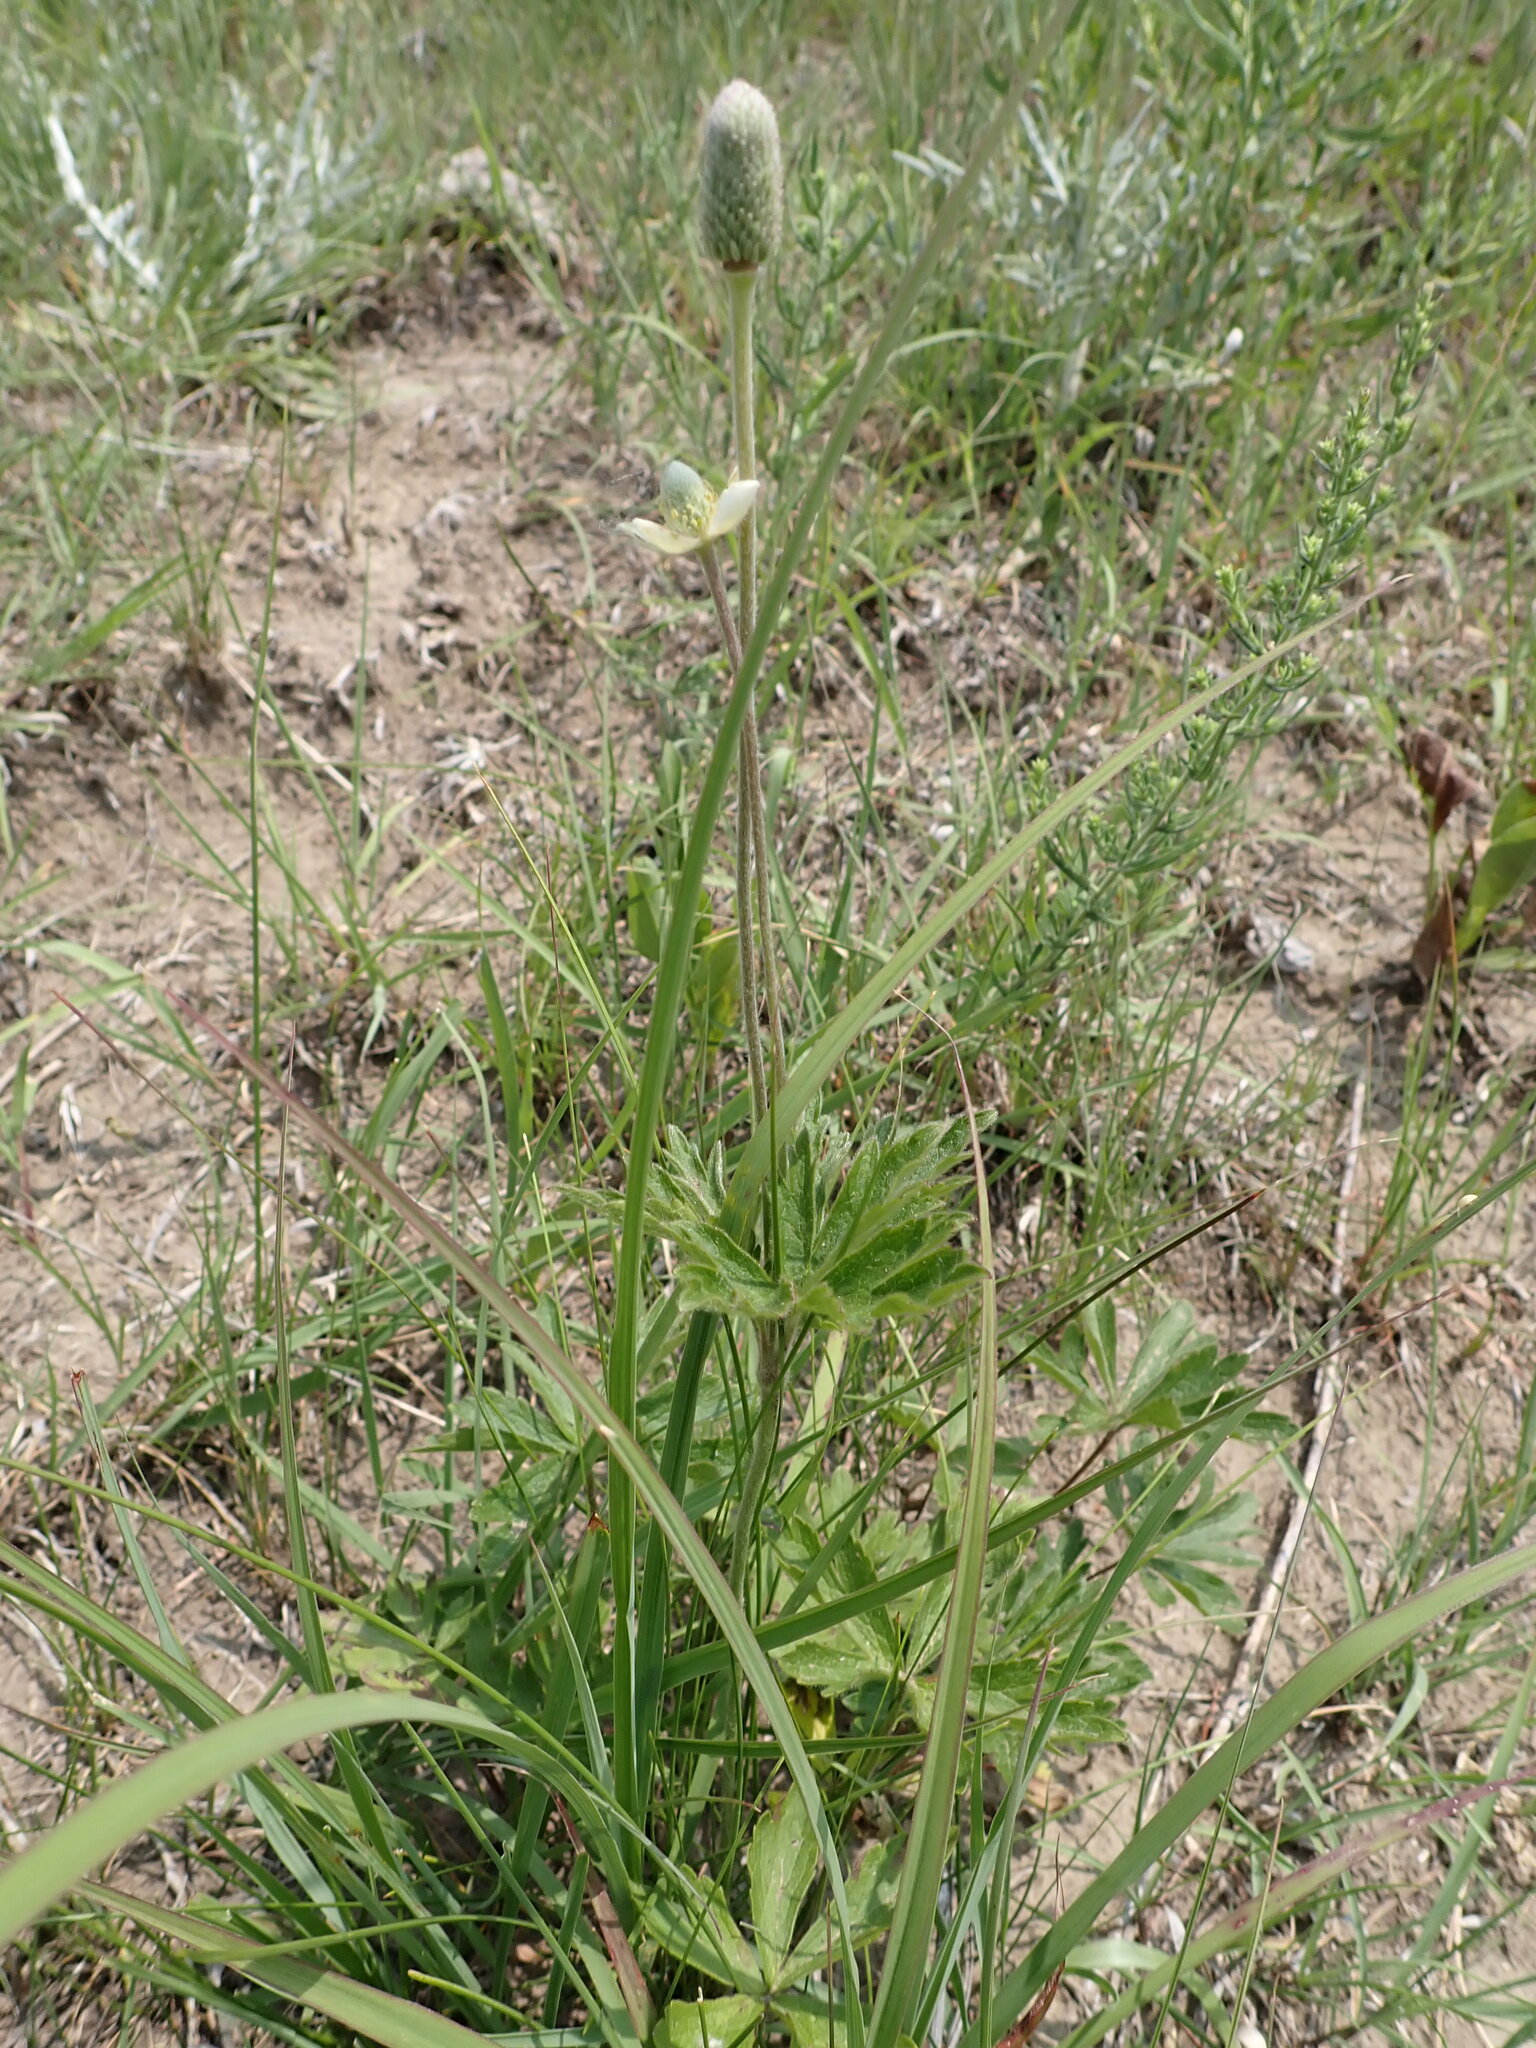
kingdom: Plantae
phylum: Tracheophyta
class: Magnoliopsida
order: Ranunculales
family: Ranunculaceae
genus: Anemone
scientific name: Anemone cylindrica
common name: Candle anemone
